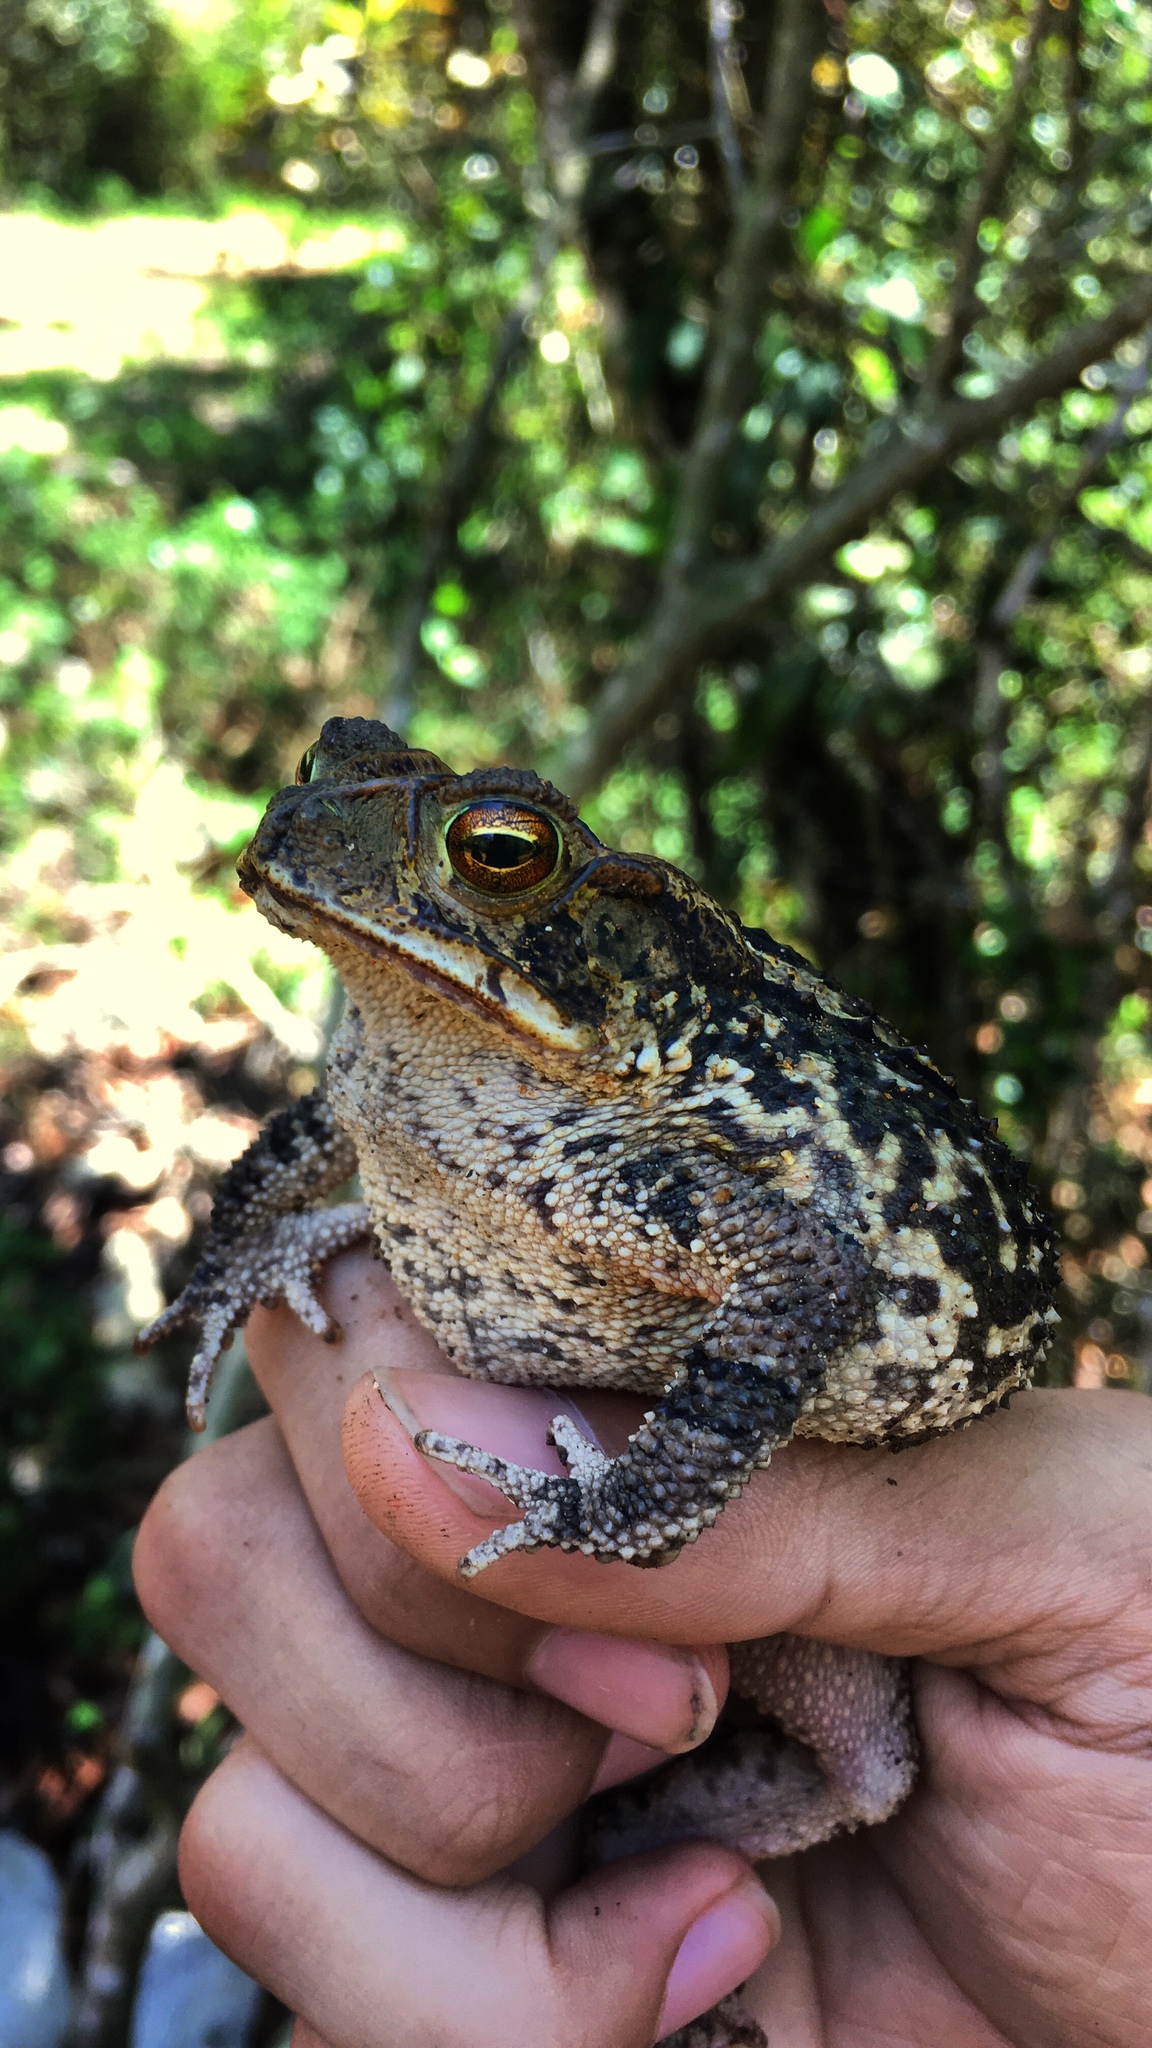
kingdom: Animalia
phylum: Chordata
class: Amphibia
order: Anura
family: Bufonidae
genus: Incilius
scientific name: Incilius valliceps
